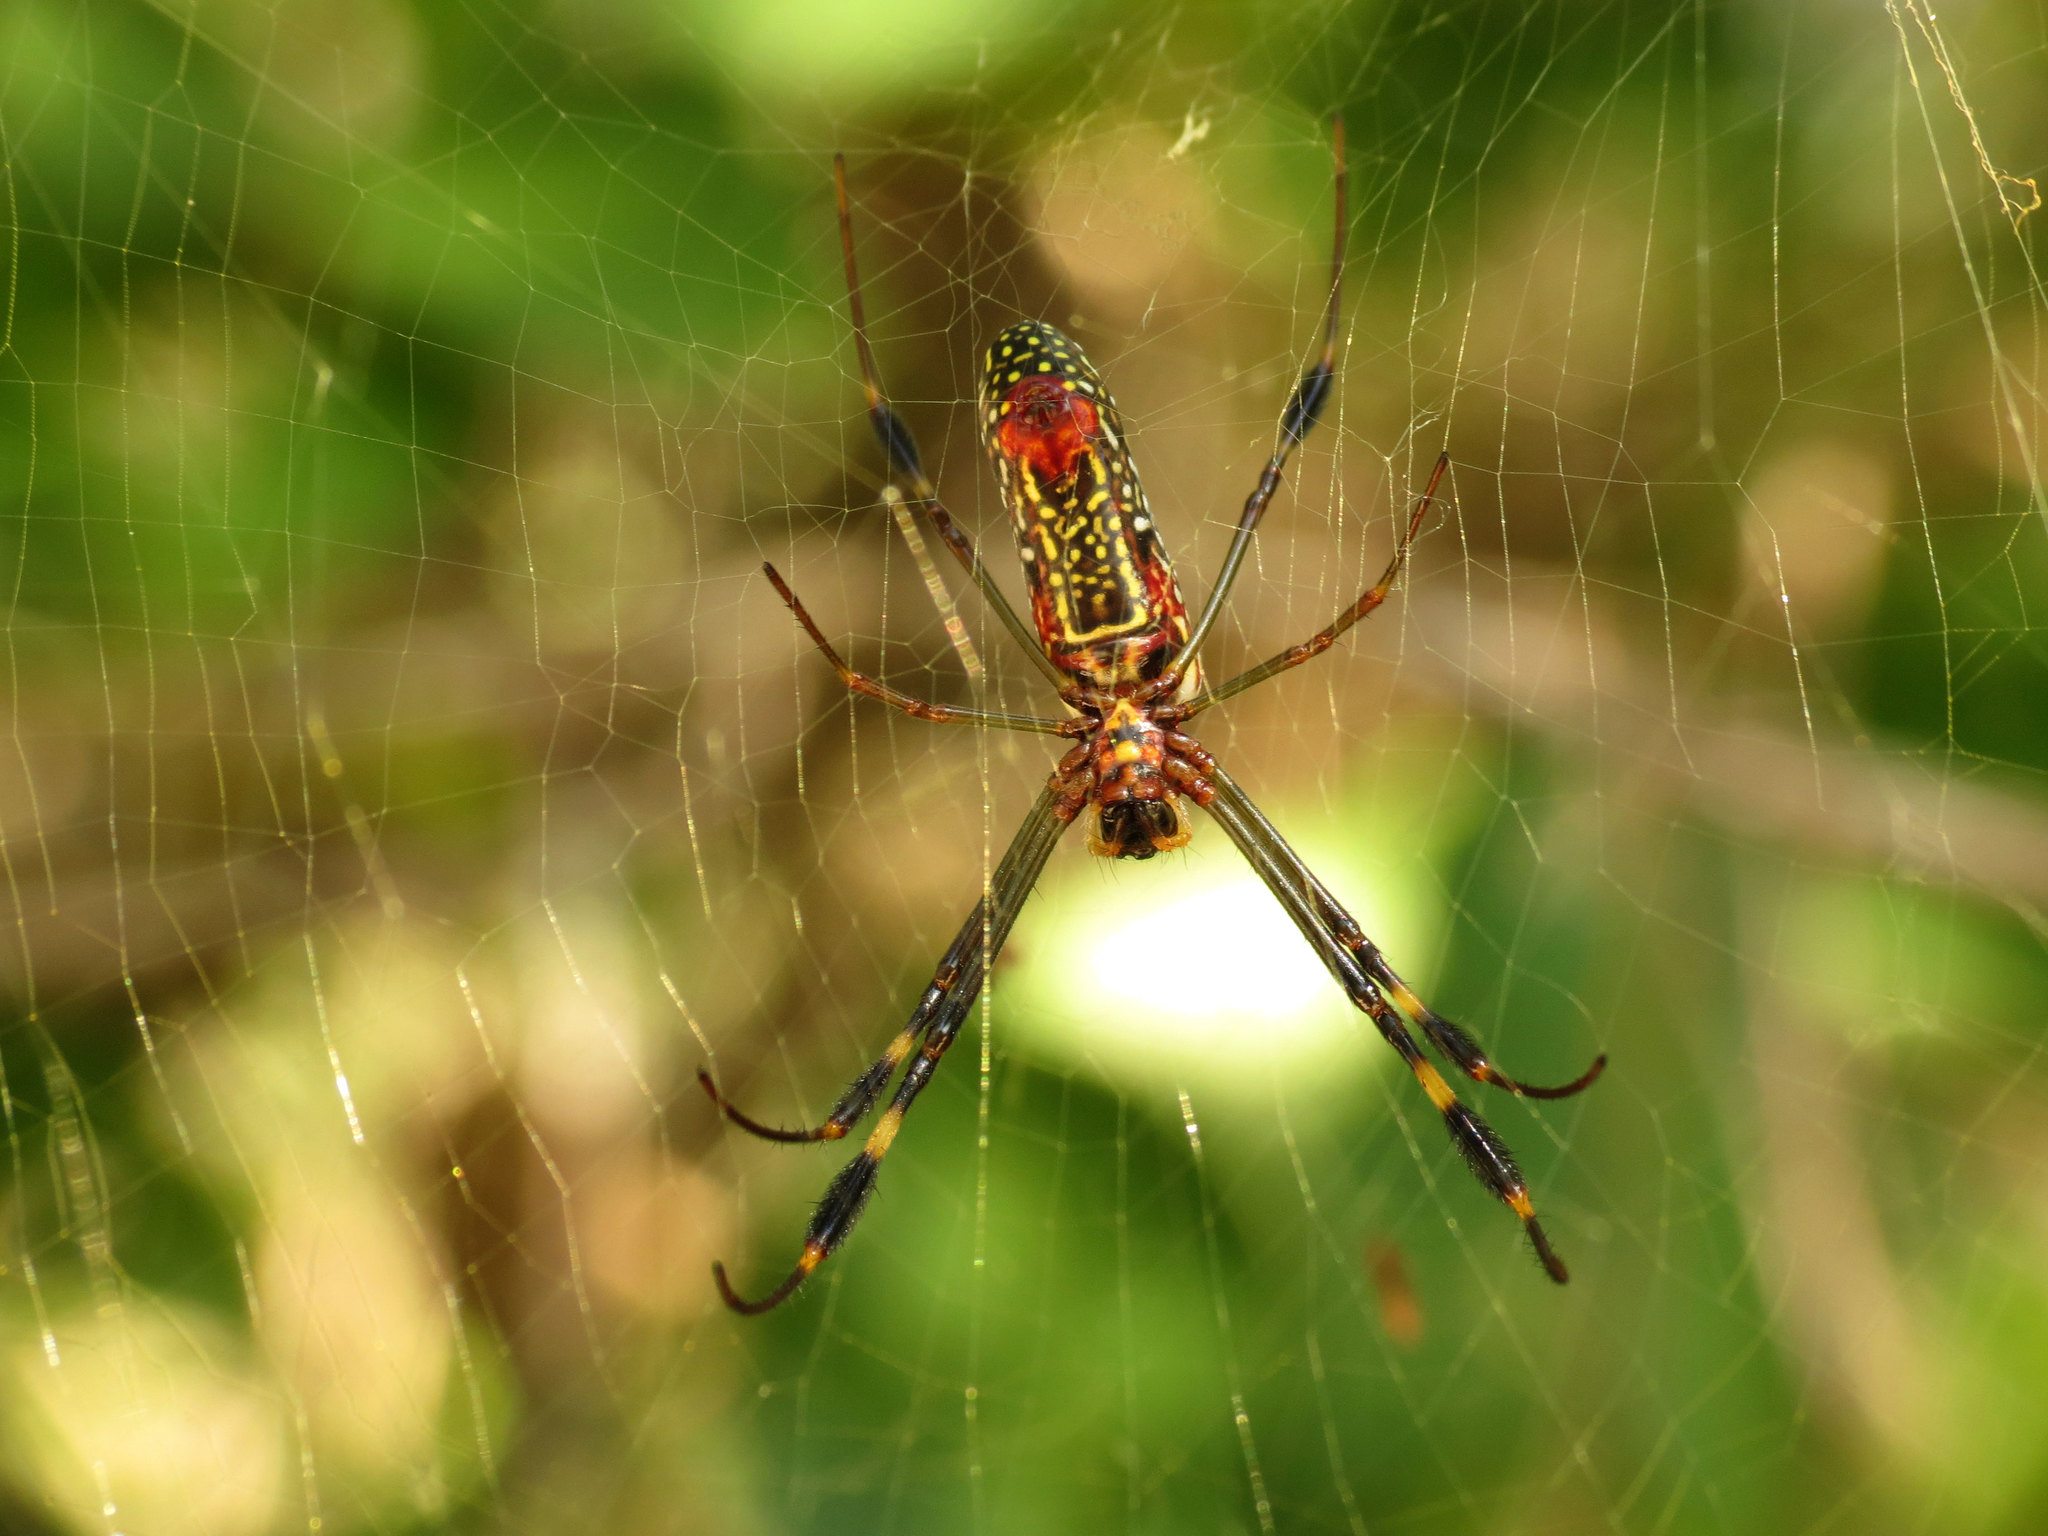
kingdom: Animalia
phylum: Arthropoda
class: Arachnida
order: Araneae
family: Araneidae
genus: Trichonephila
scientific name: Trichonephila clavipes
